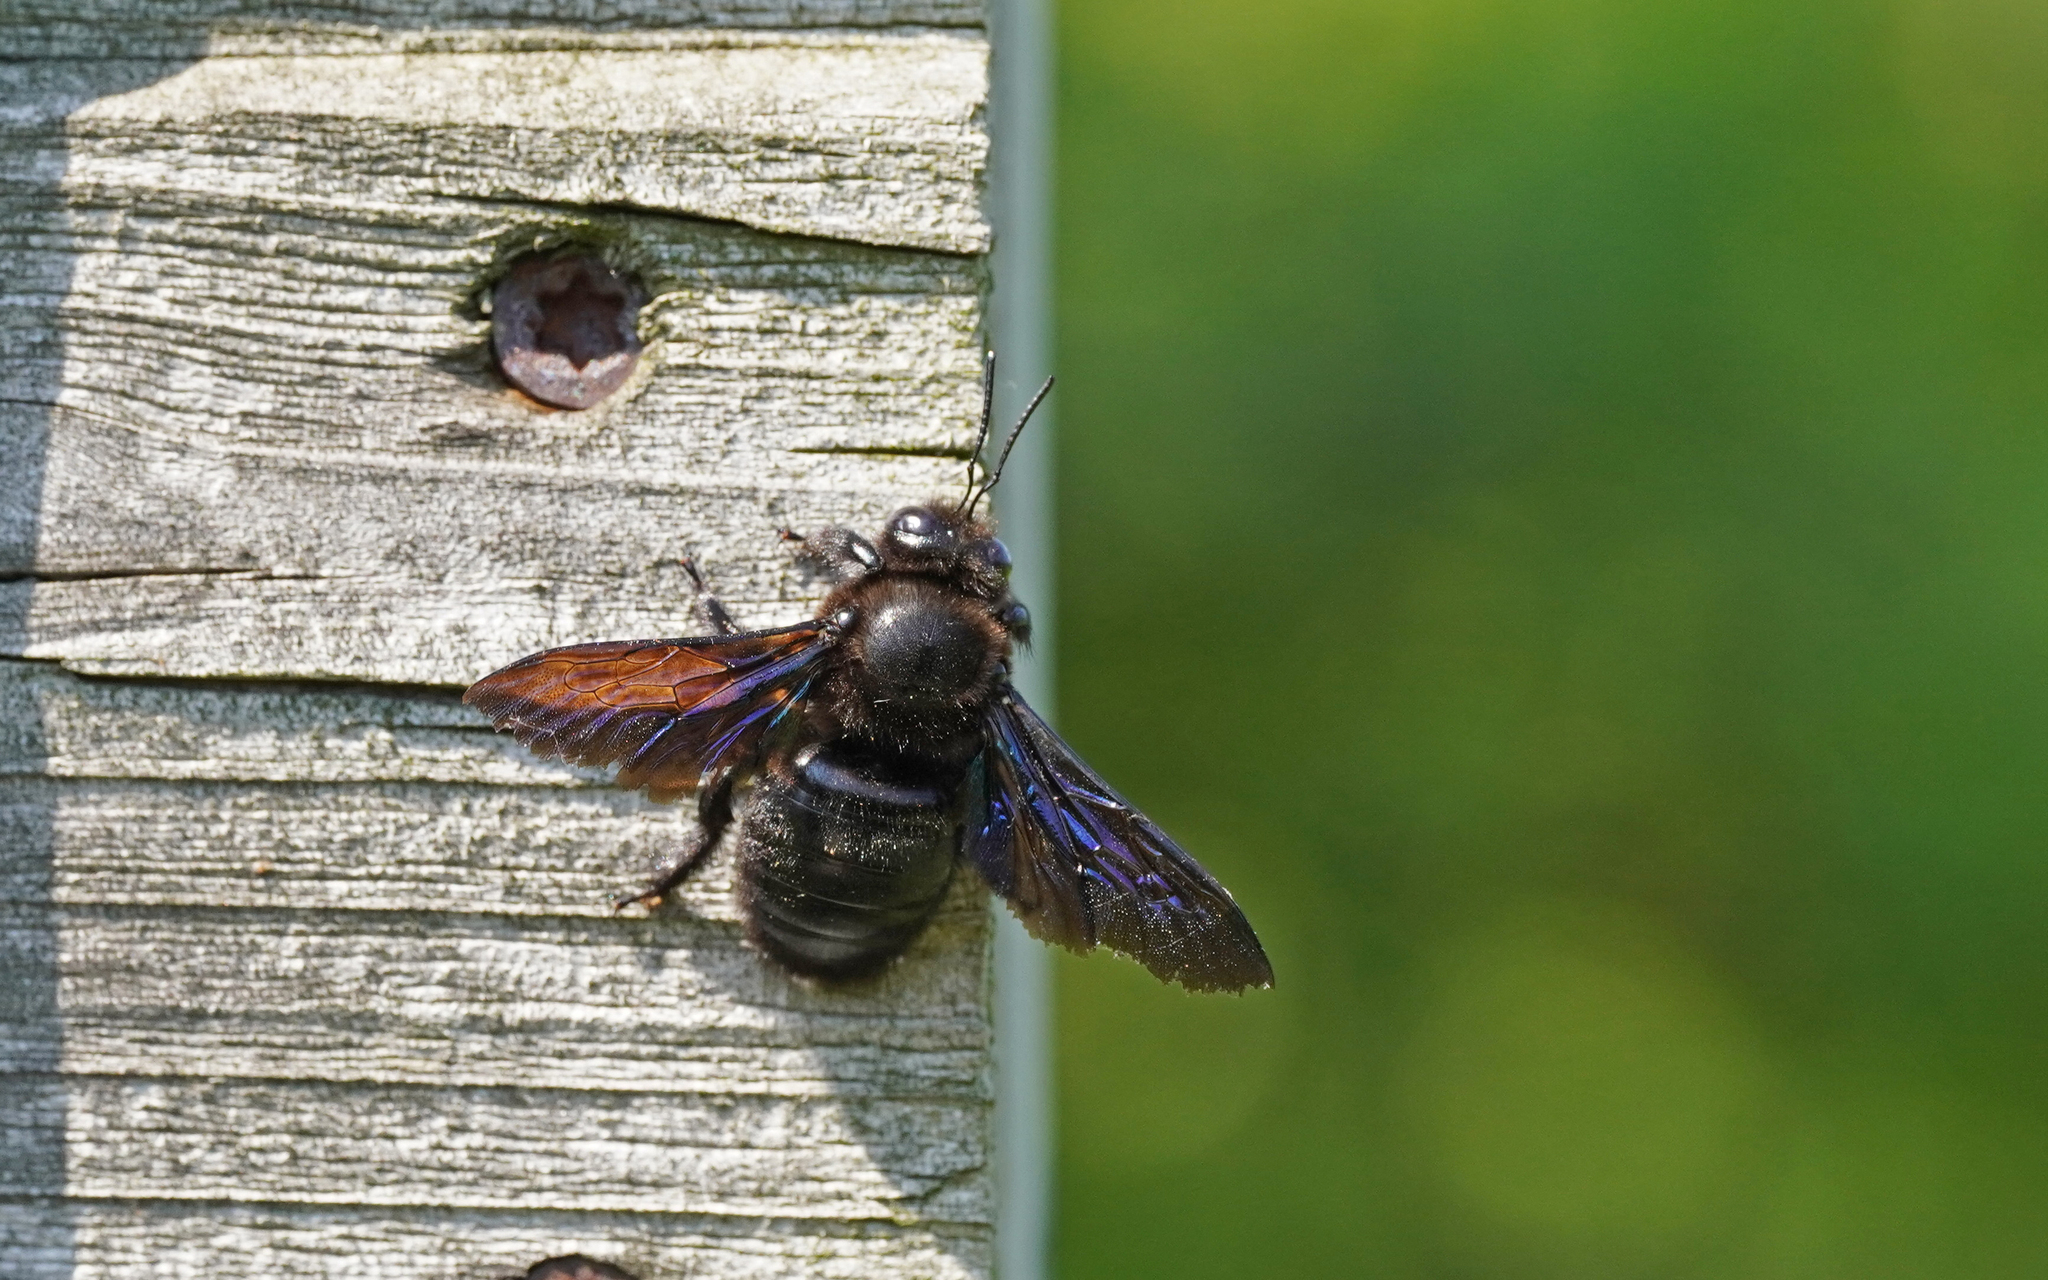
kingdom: Animalia
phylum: Arthropoda
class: Insecta
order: Hymenoptera
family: Apidae
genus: Xylocopa
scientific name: Xylocopa valga
